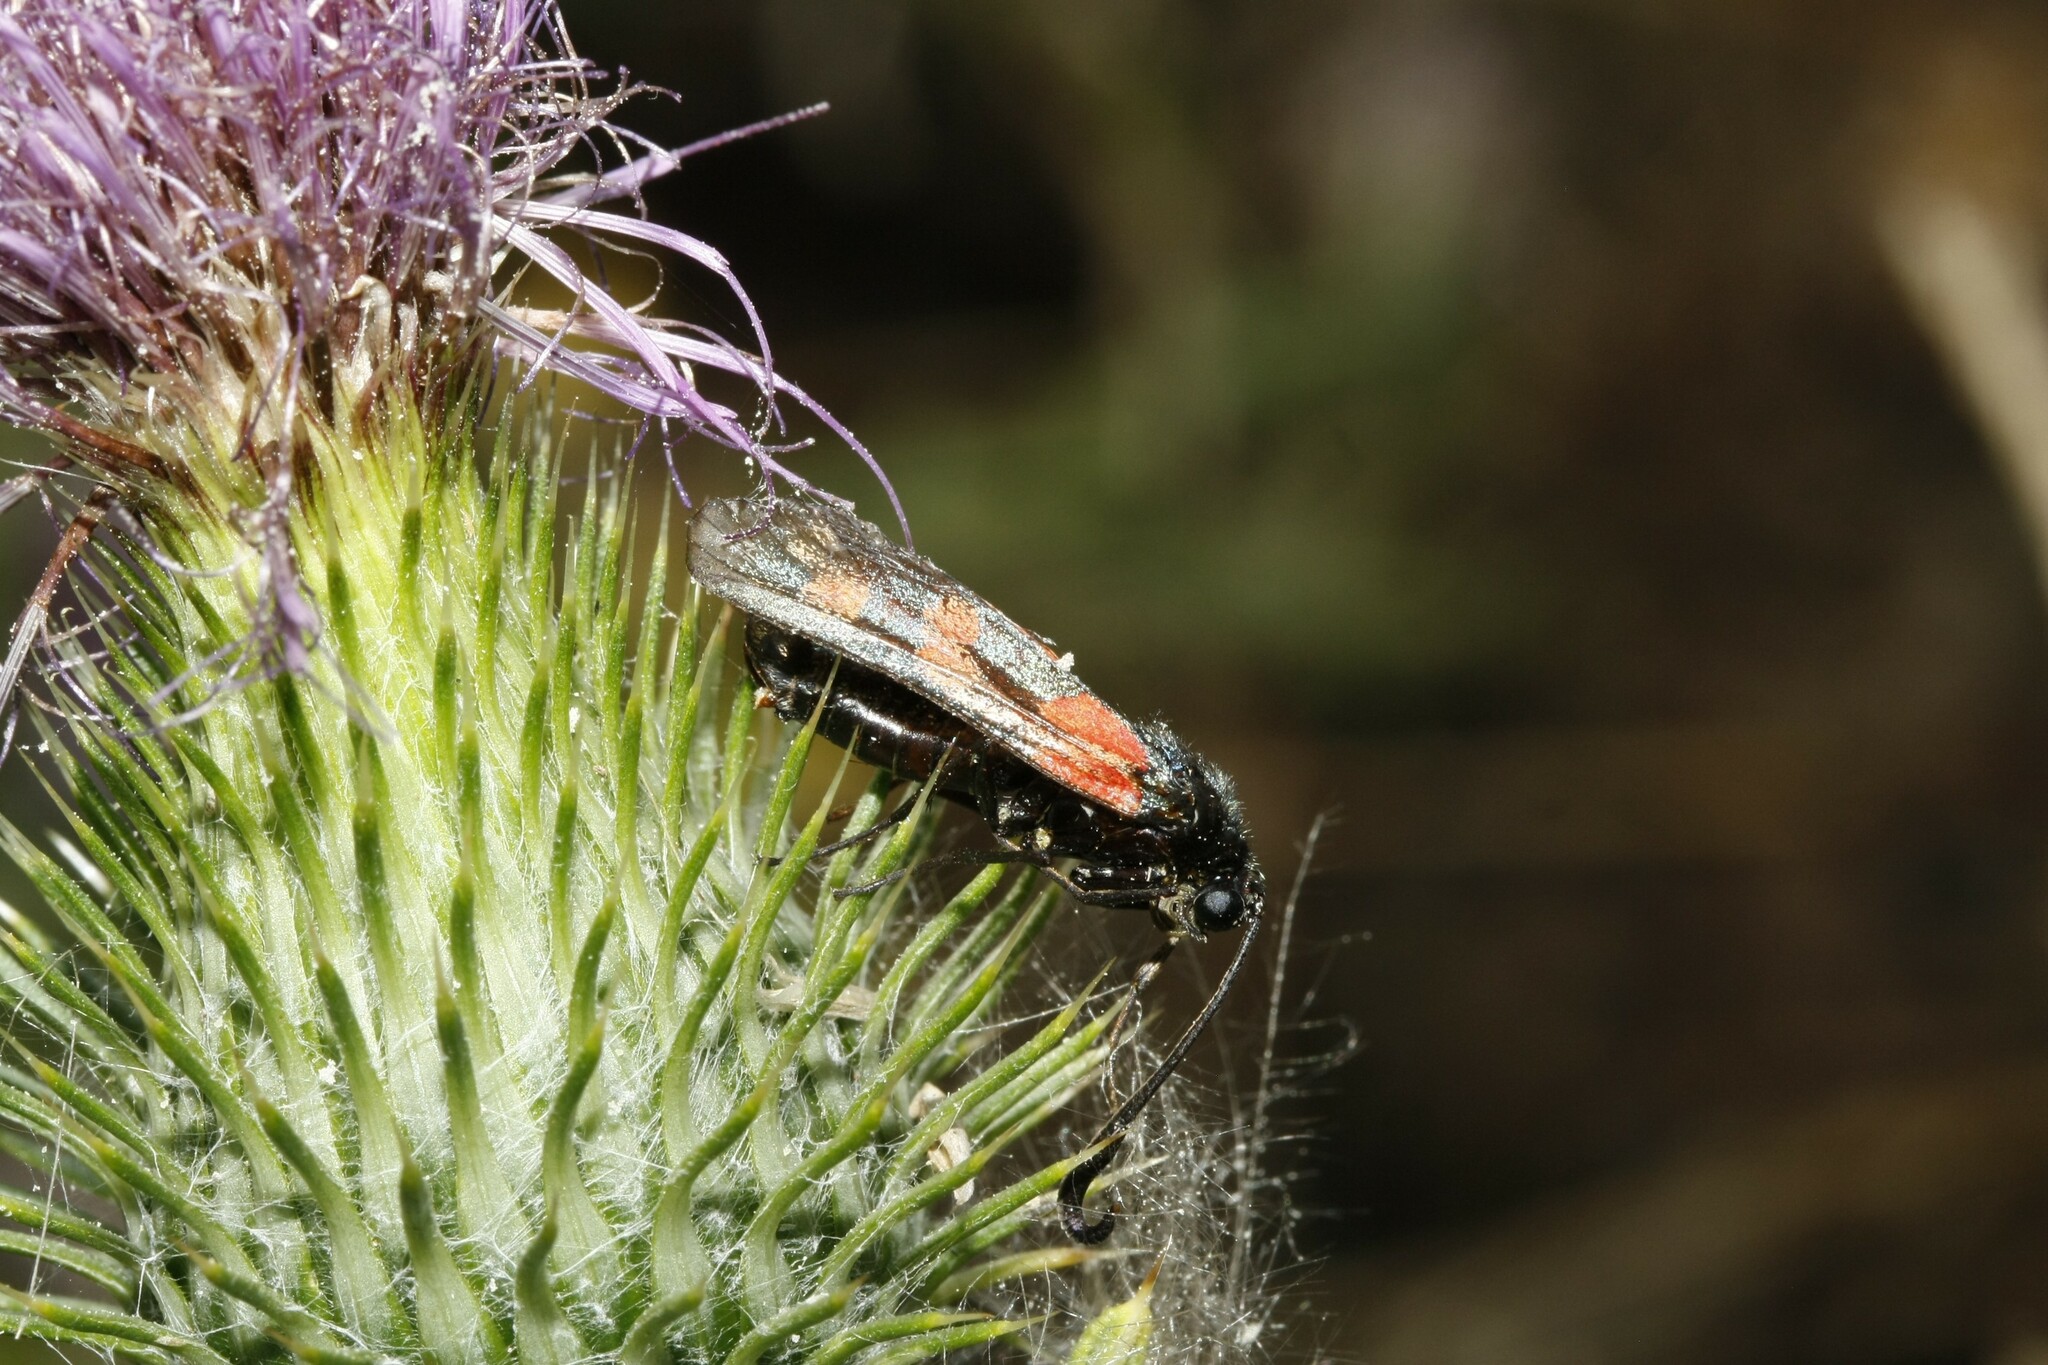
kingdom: Animalia
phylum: Arthropoda
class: Insecta
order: Lepidoptera
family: Zygaenidae
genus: Zygaena
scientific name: Zygaena filipendulae
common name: Six-spot burnet
